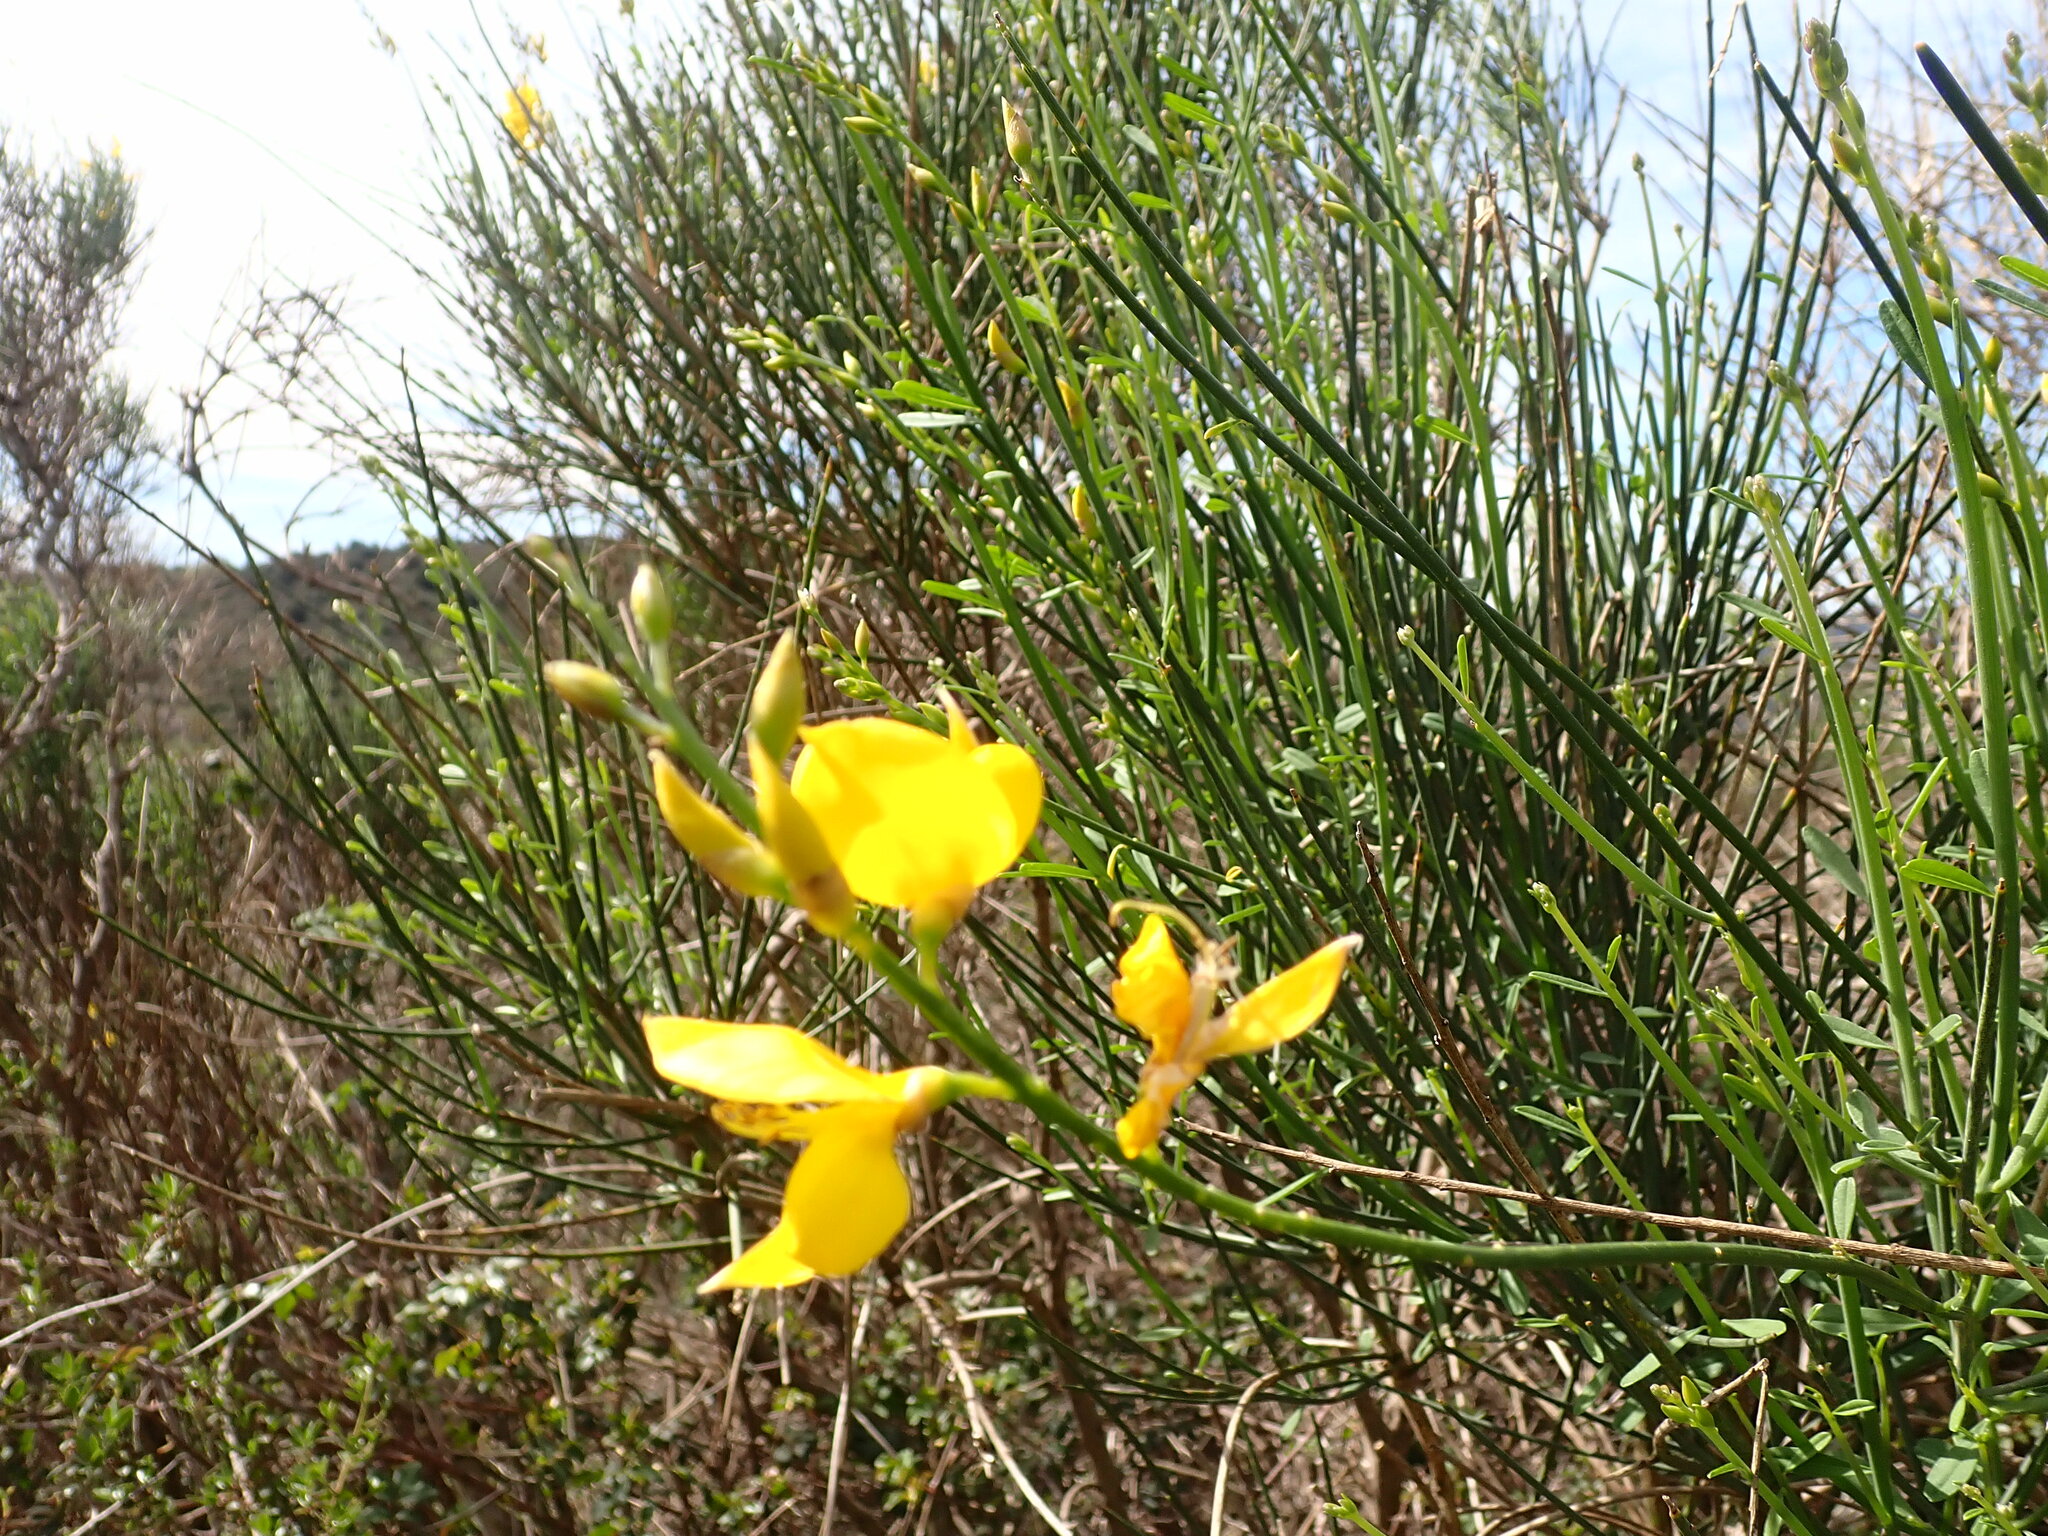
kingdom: Plantae
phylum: Tracheophyta
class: Magnoliopsida
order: Fabales
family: Fabaceae
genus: Spartium
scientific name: Spartium junceum
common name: Spanish broom
